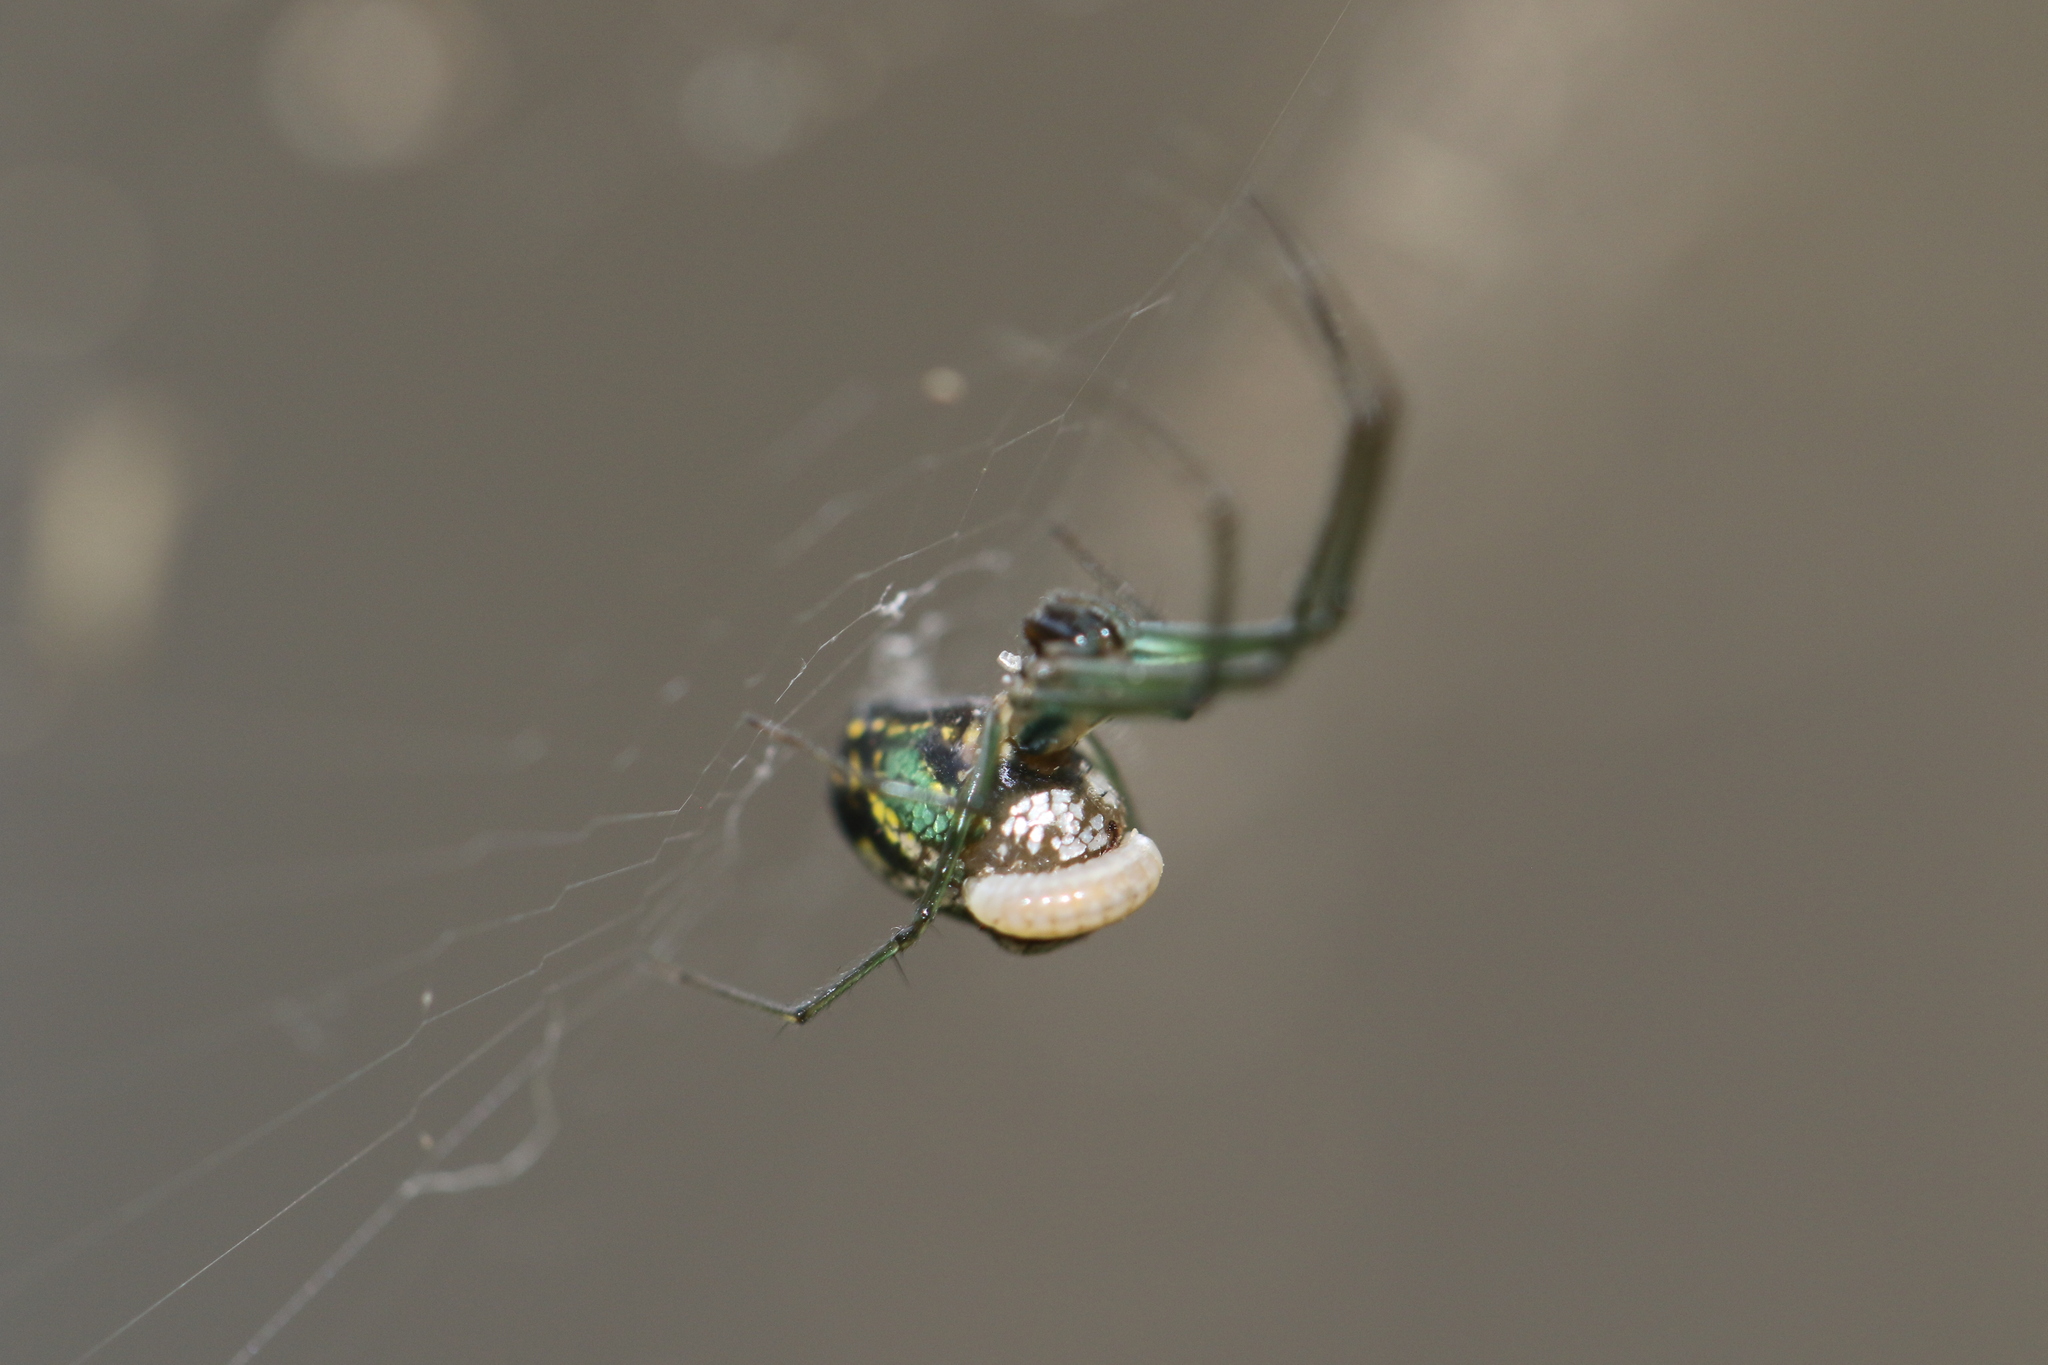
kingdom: Animalia
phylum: Arthropoda
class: Arachnida
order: Araneae
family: Tetragnathidae
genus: Leucauge
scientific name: Leucauge volupis
